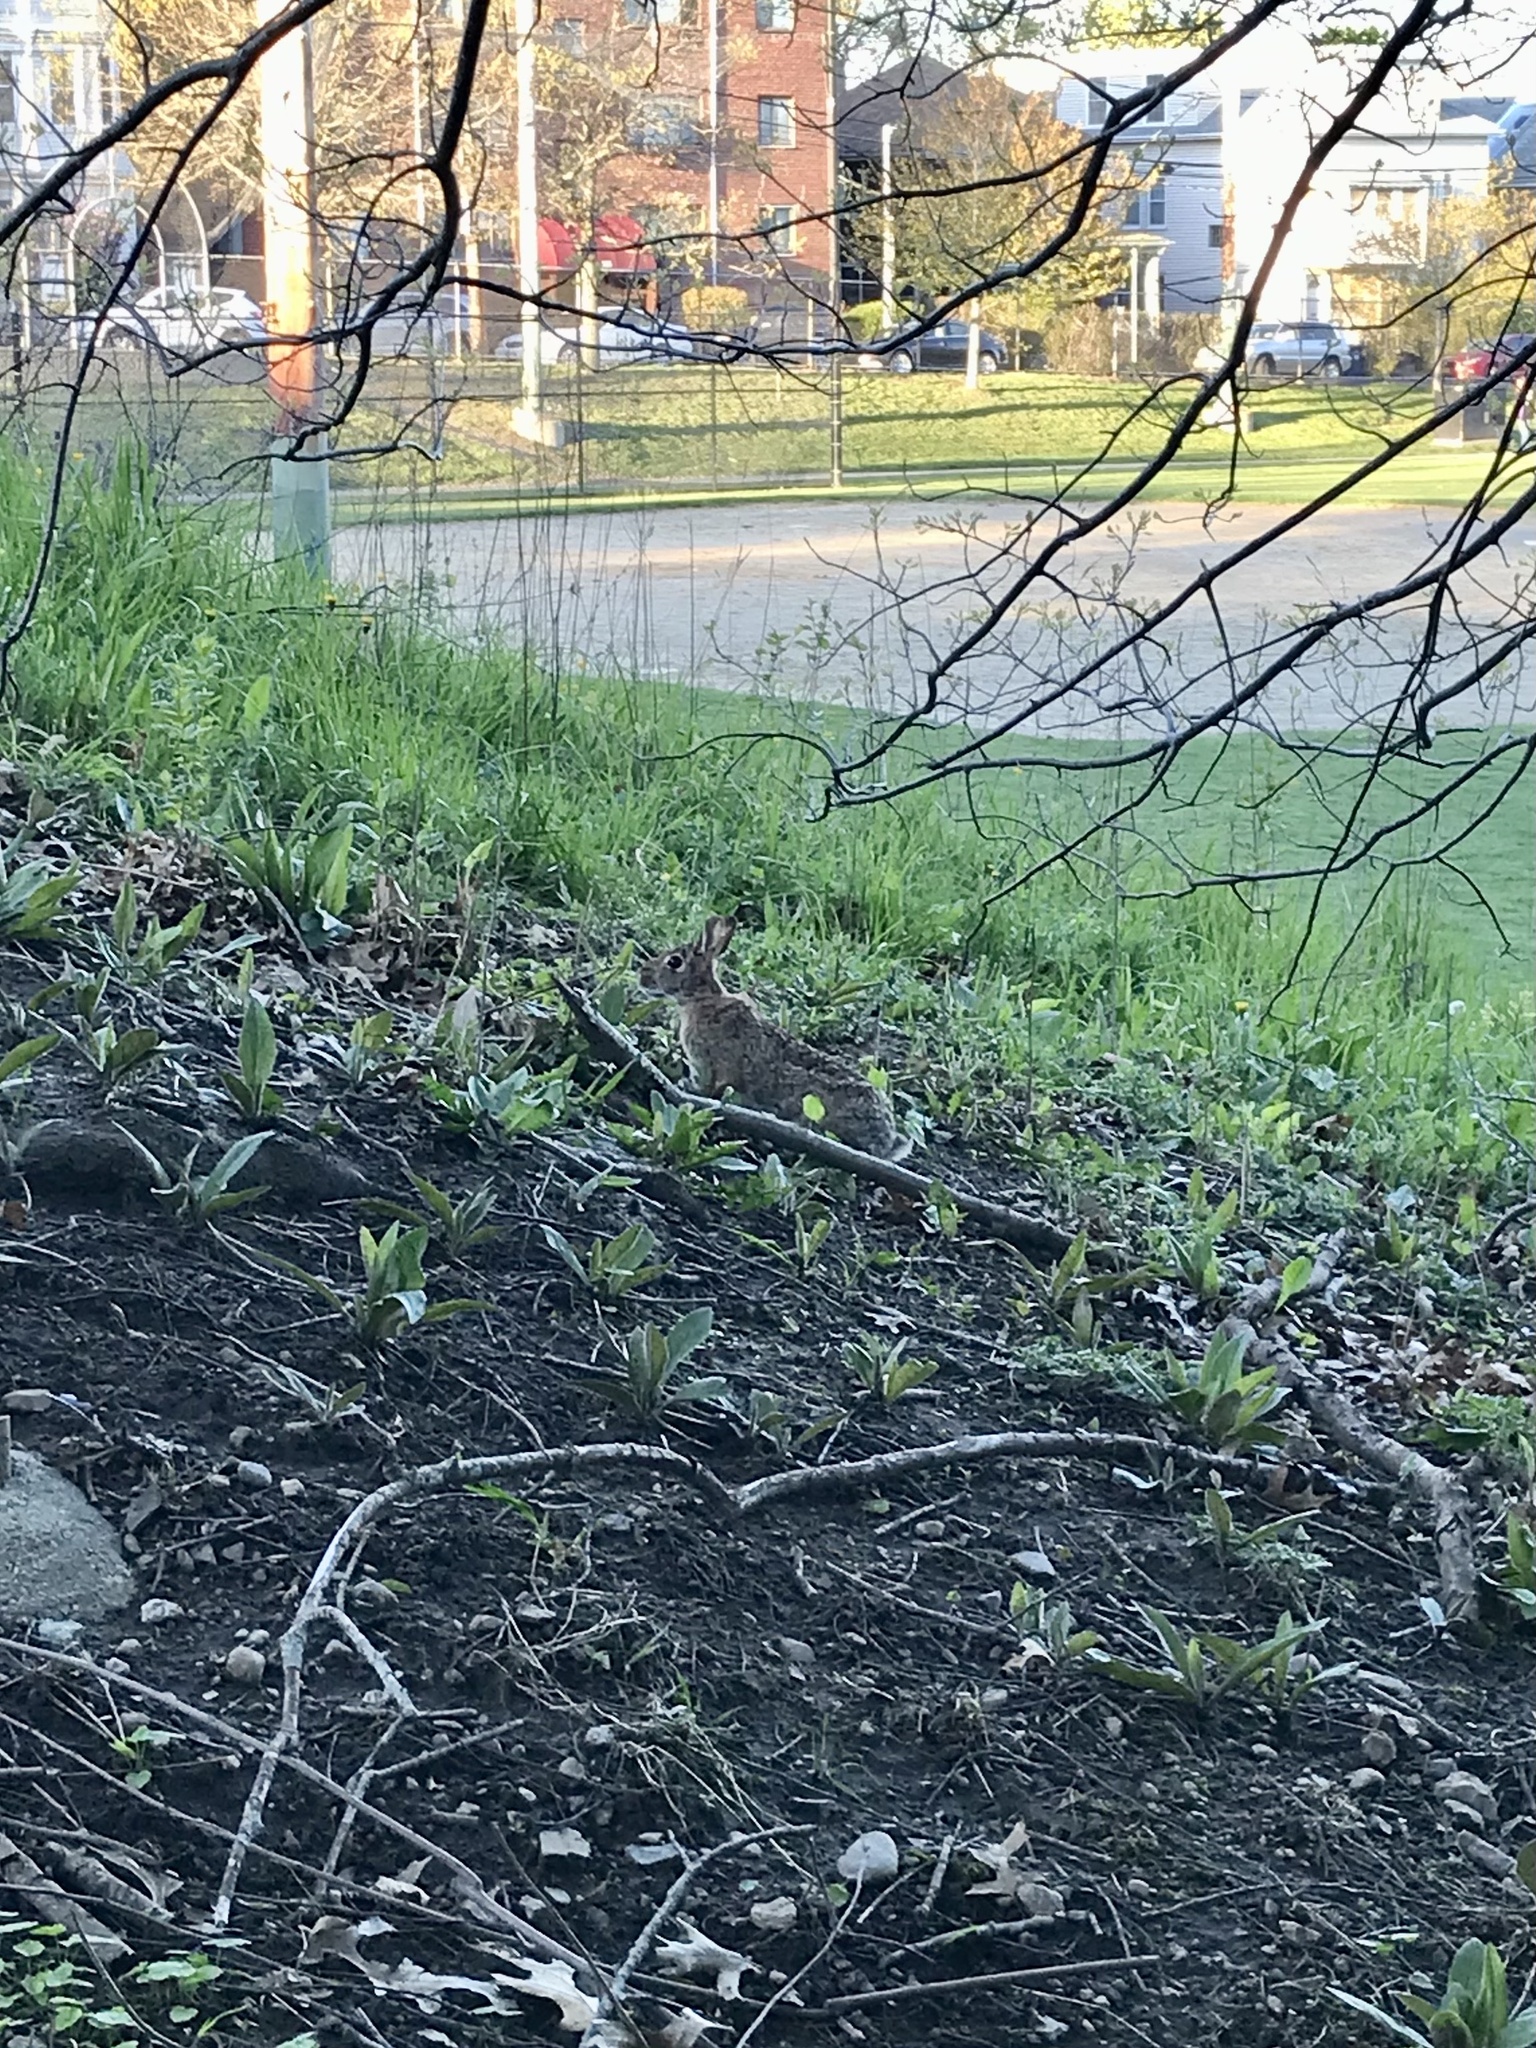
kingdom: Animalia
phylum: Chordata
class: Mammalia
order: Lagomorpha
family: Leporidae
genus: Sylvilagus
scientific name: Sylvilagus floridanus
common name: Eastern cottontail
